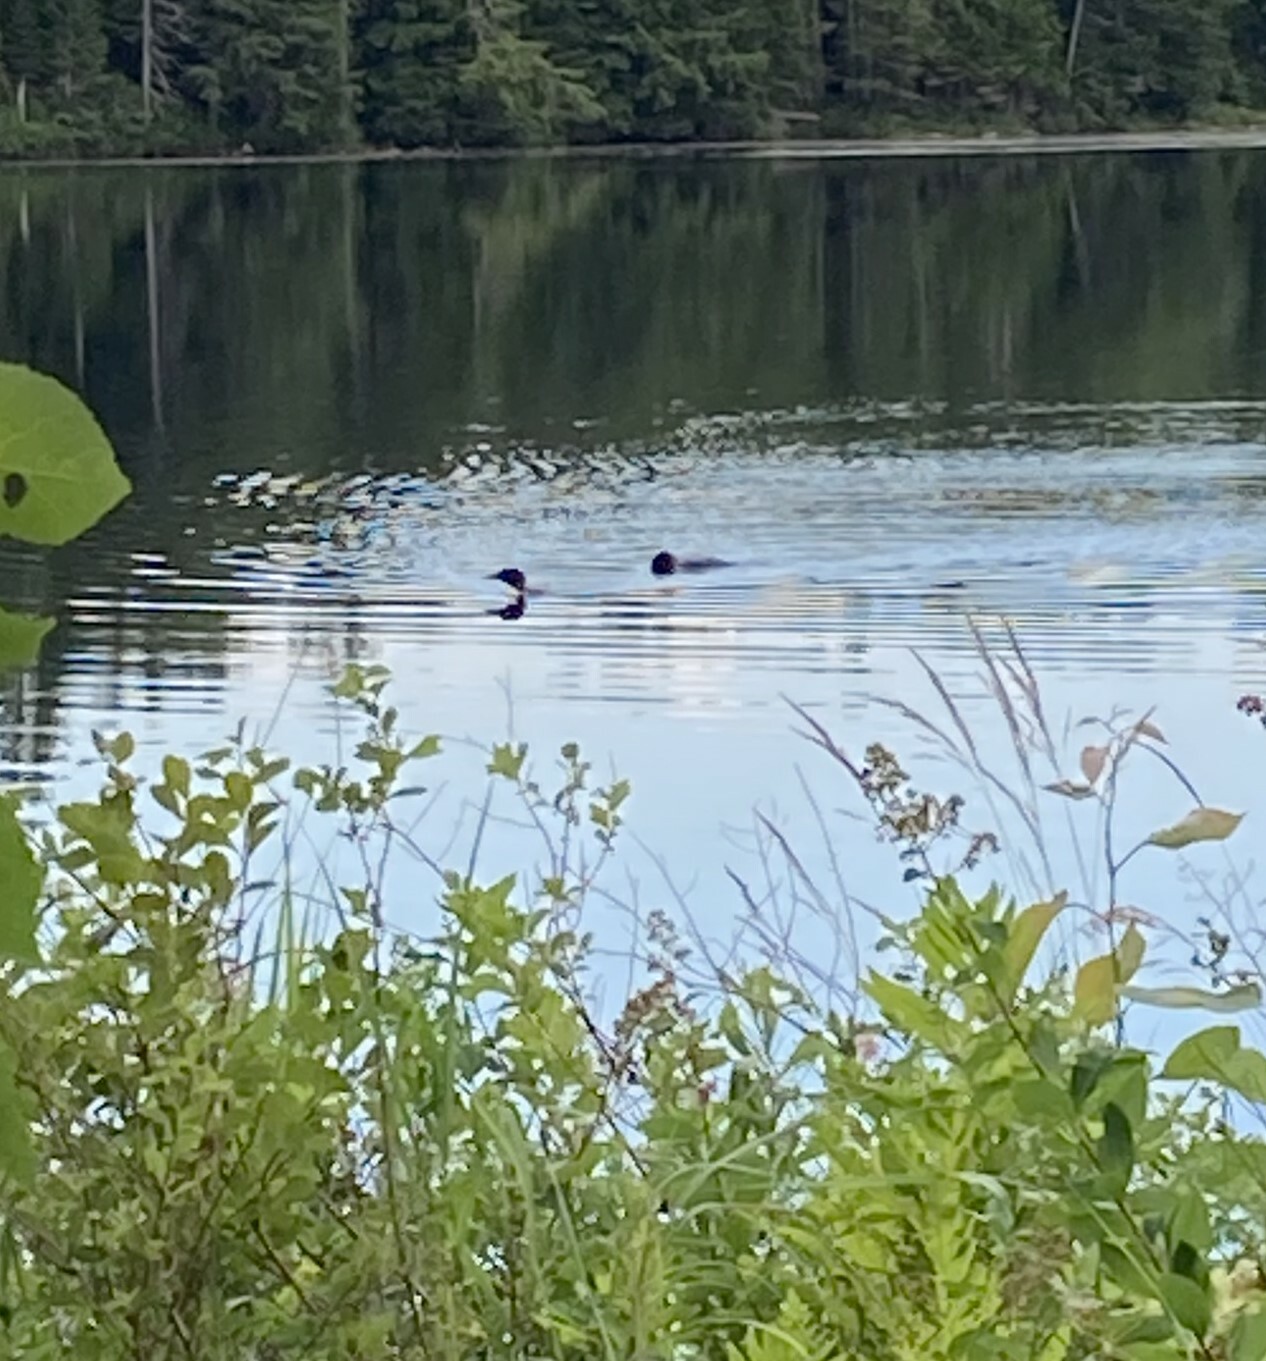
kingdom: Animalia
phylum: Chordata
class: Aves
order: Gaviiformes
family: Gaviidae
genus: Gavia
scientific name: Gavia immer
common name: Common loon
